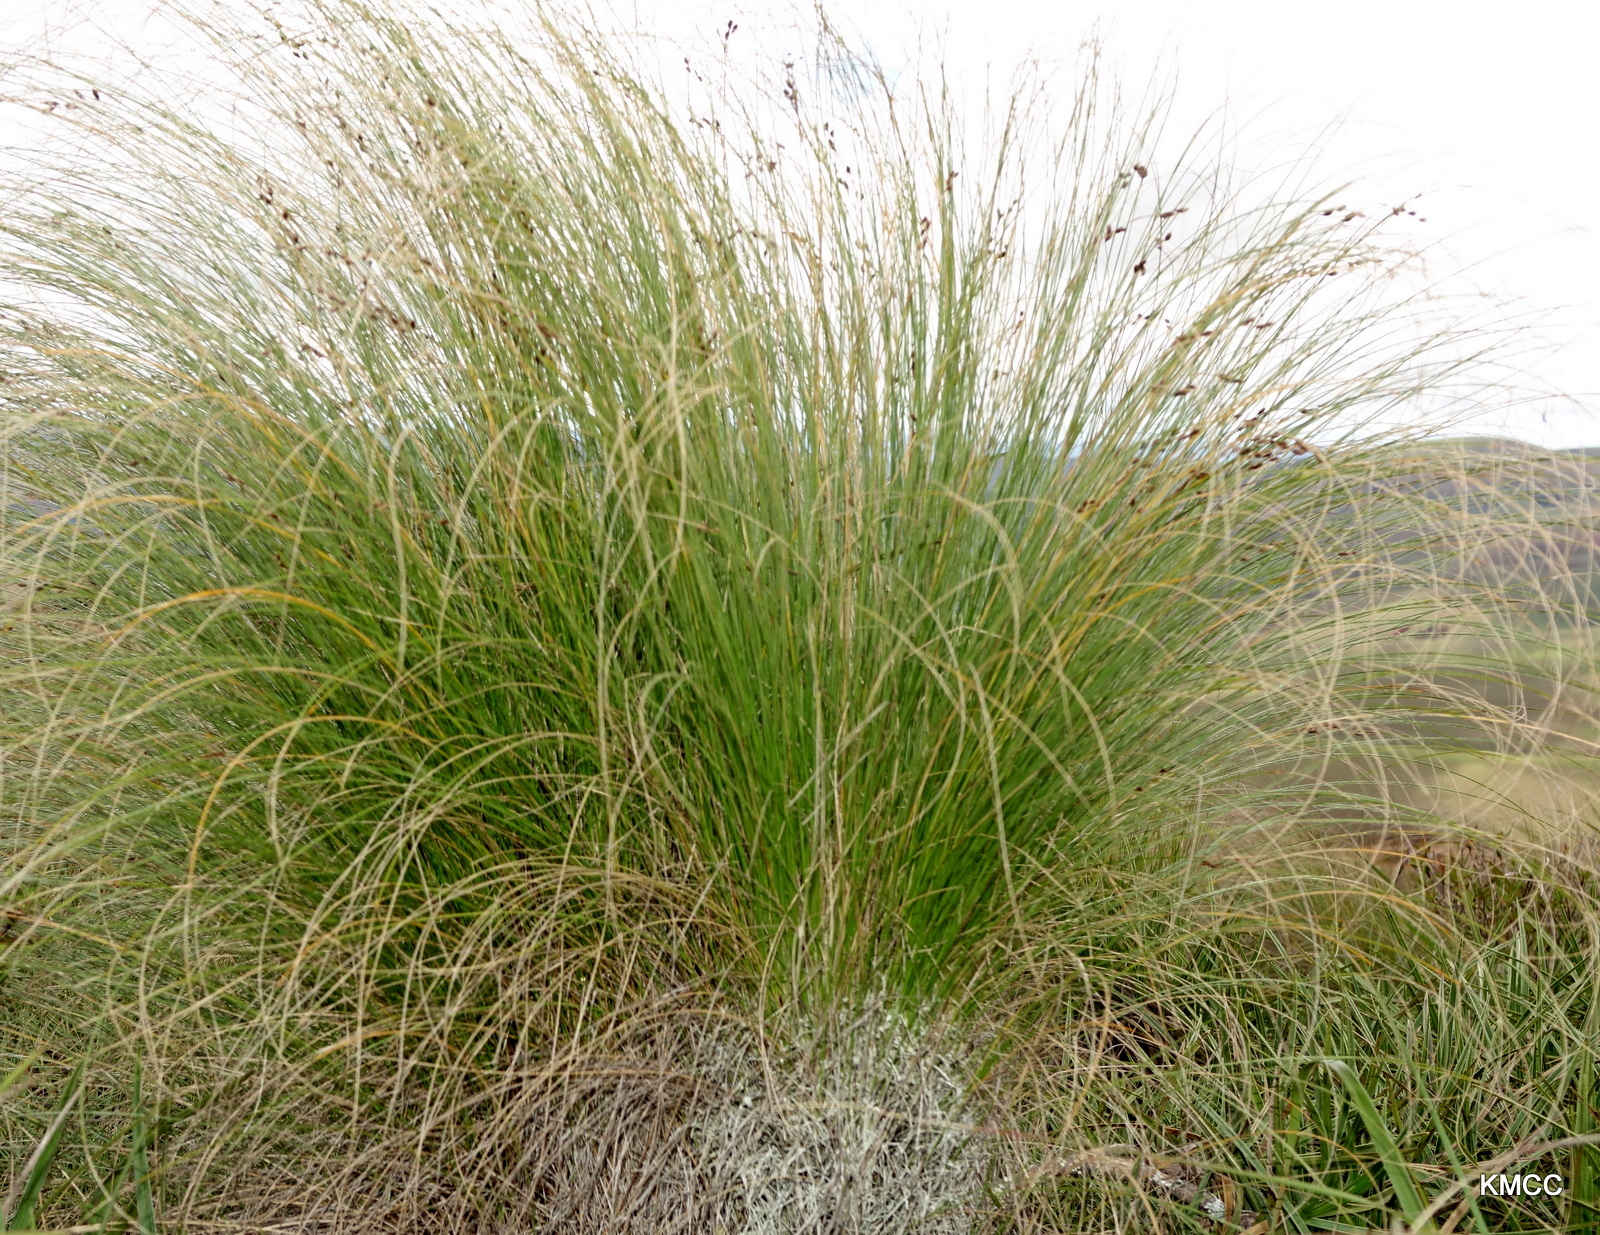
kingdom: Plantae
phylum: Tracheophyta
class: Liliopsida
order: Poales
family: Cyperaceae
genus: Coleochloa
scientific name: Coleochloa setifera
